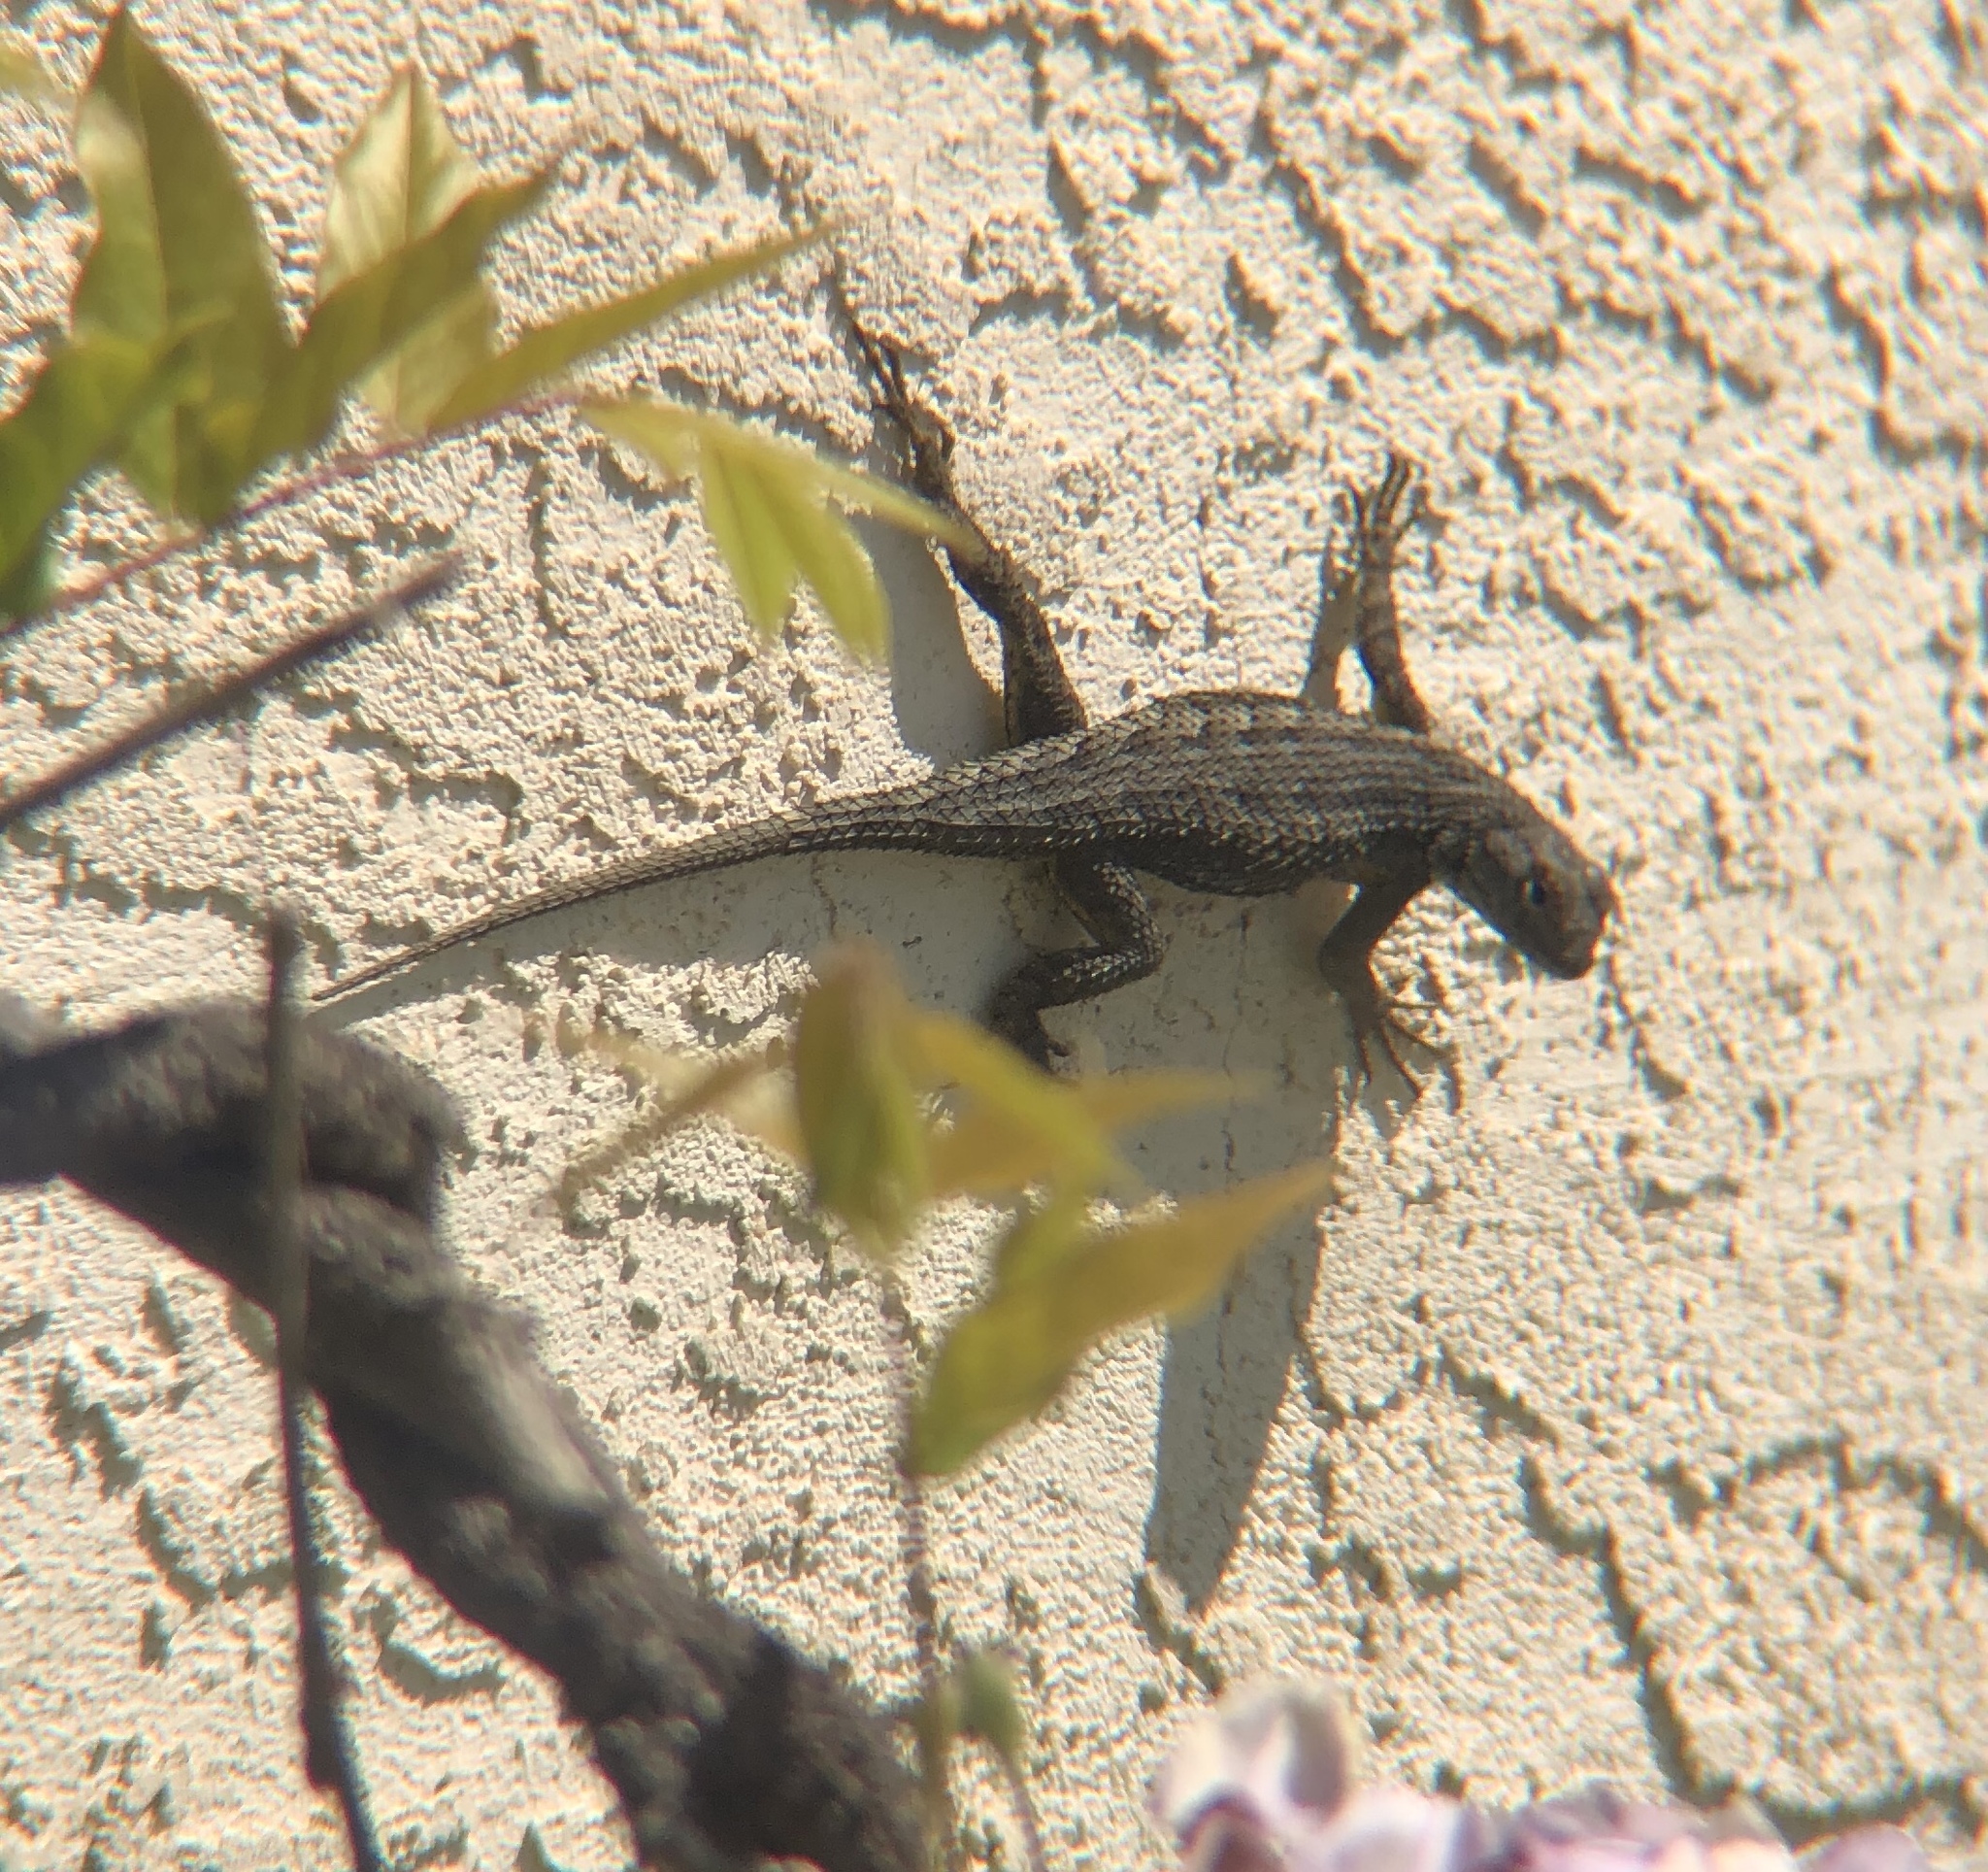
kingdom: Animalia
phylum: Chordata
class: Squamata
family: Phrynosomatidae
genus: Sceloporus
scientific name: Sceloporus occidentalis
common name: Western fence lizard
